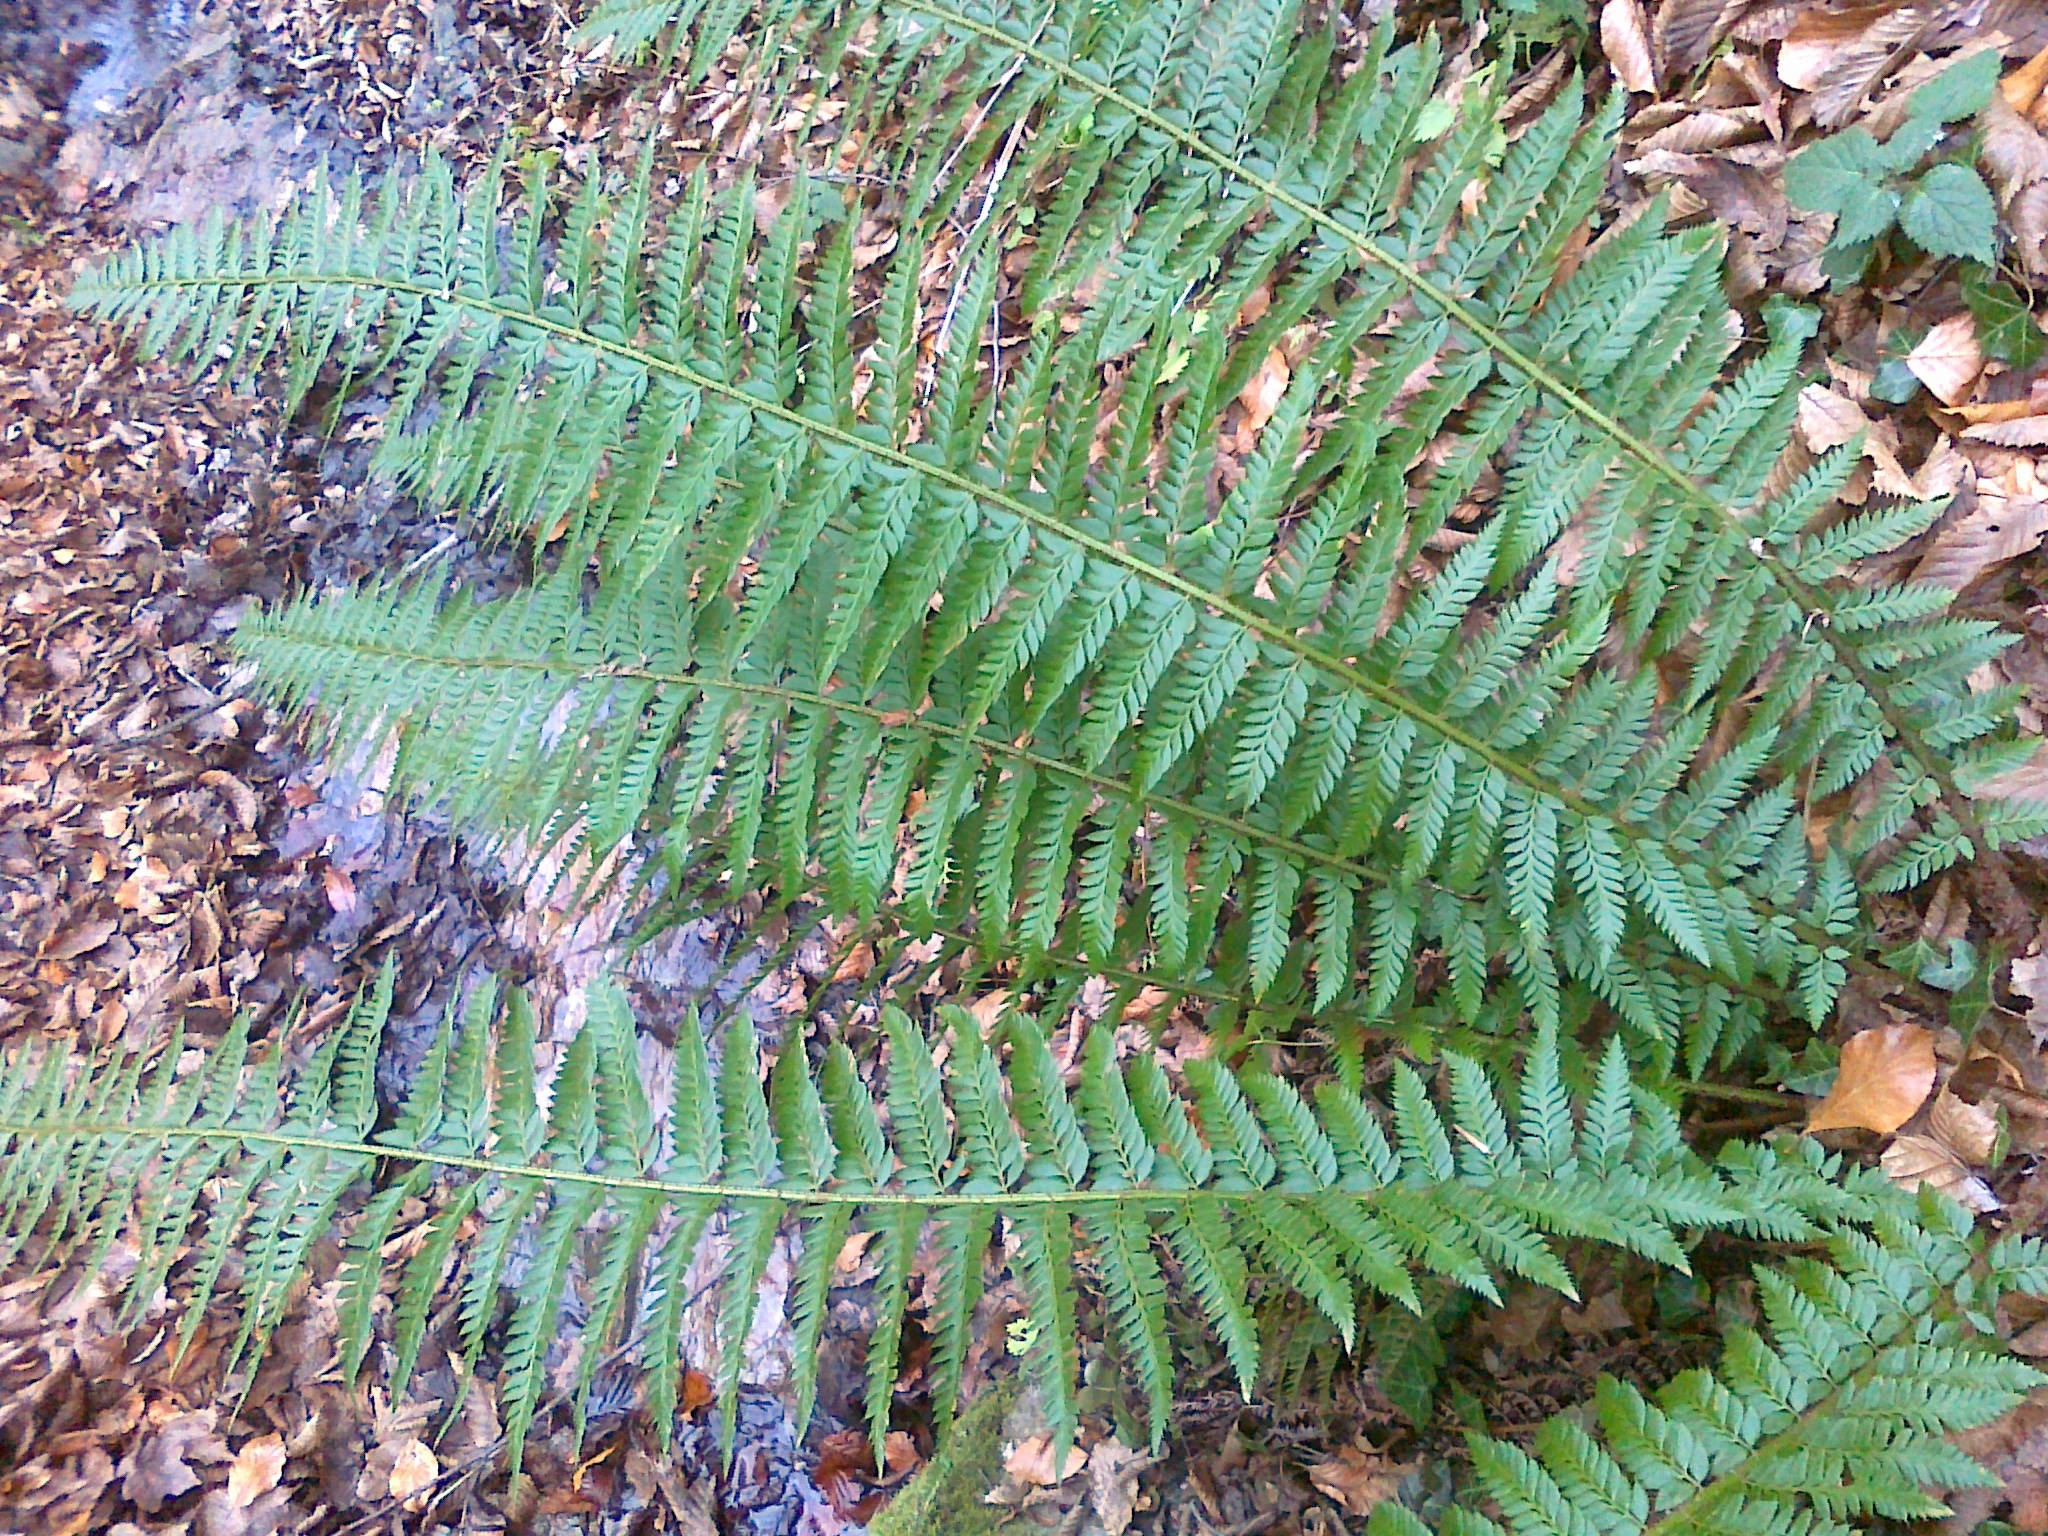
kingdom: Plantae
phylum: Tracheophyta
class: Polypodiopsida
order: Polypodiales
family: Dryopteridaceae
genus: Polystichum
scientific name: Polystichum aculeatum
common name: Hard shield-fern
